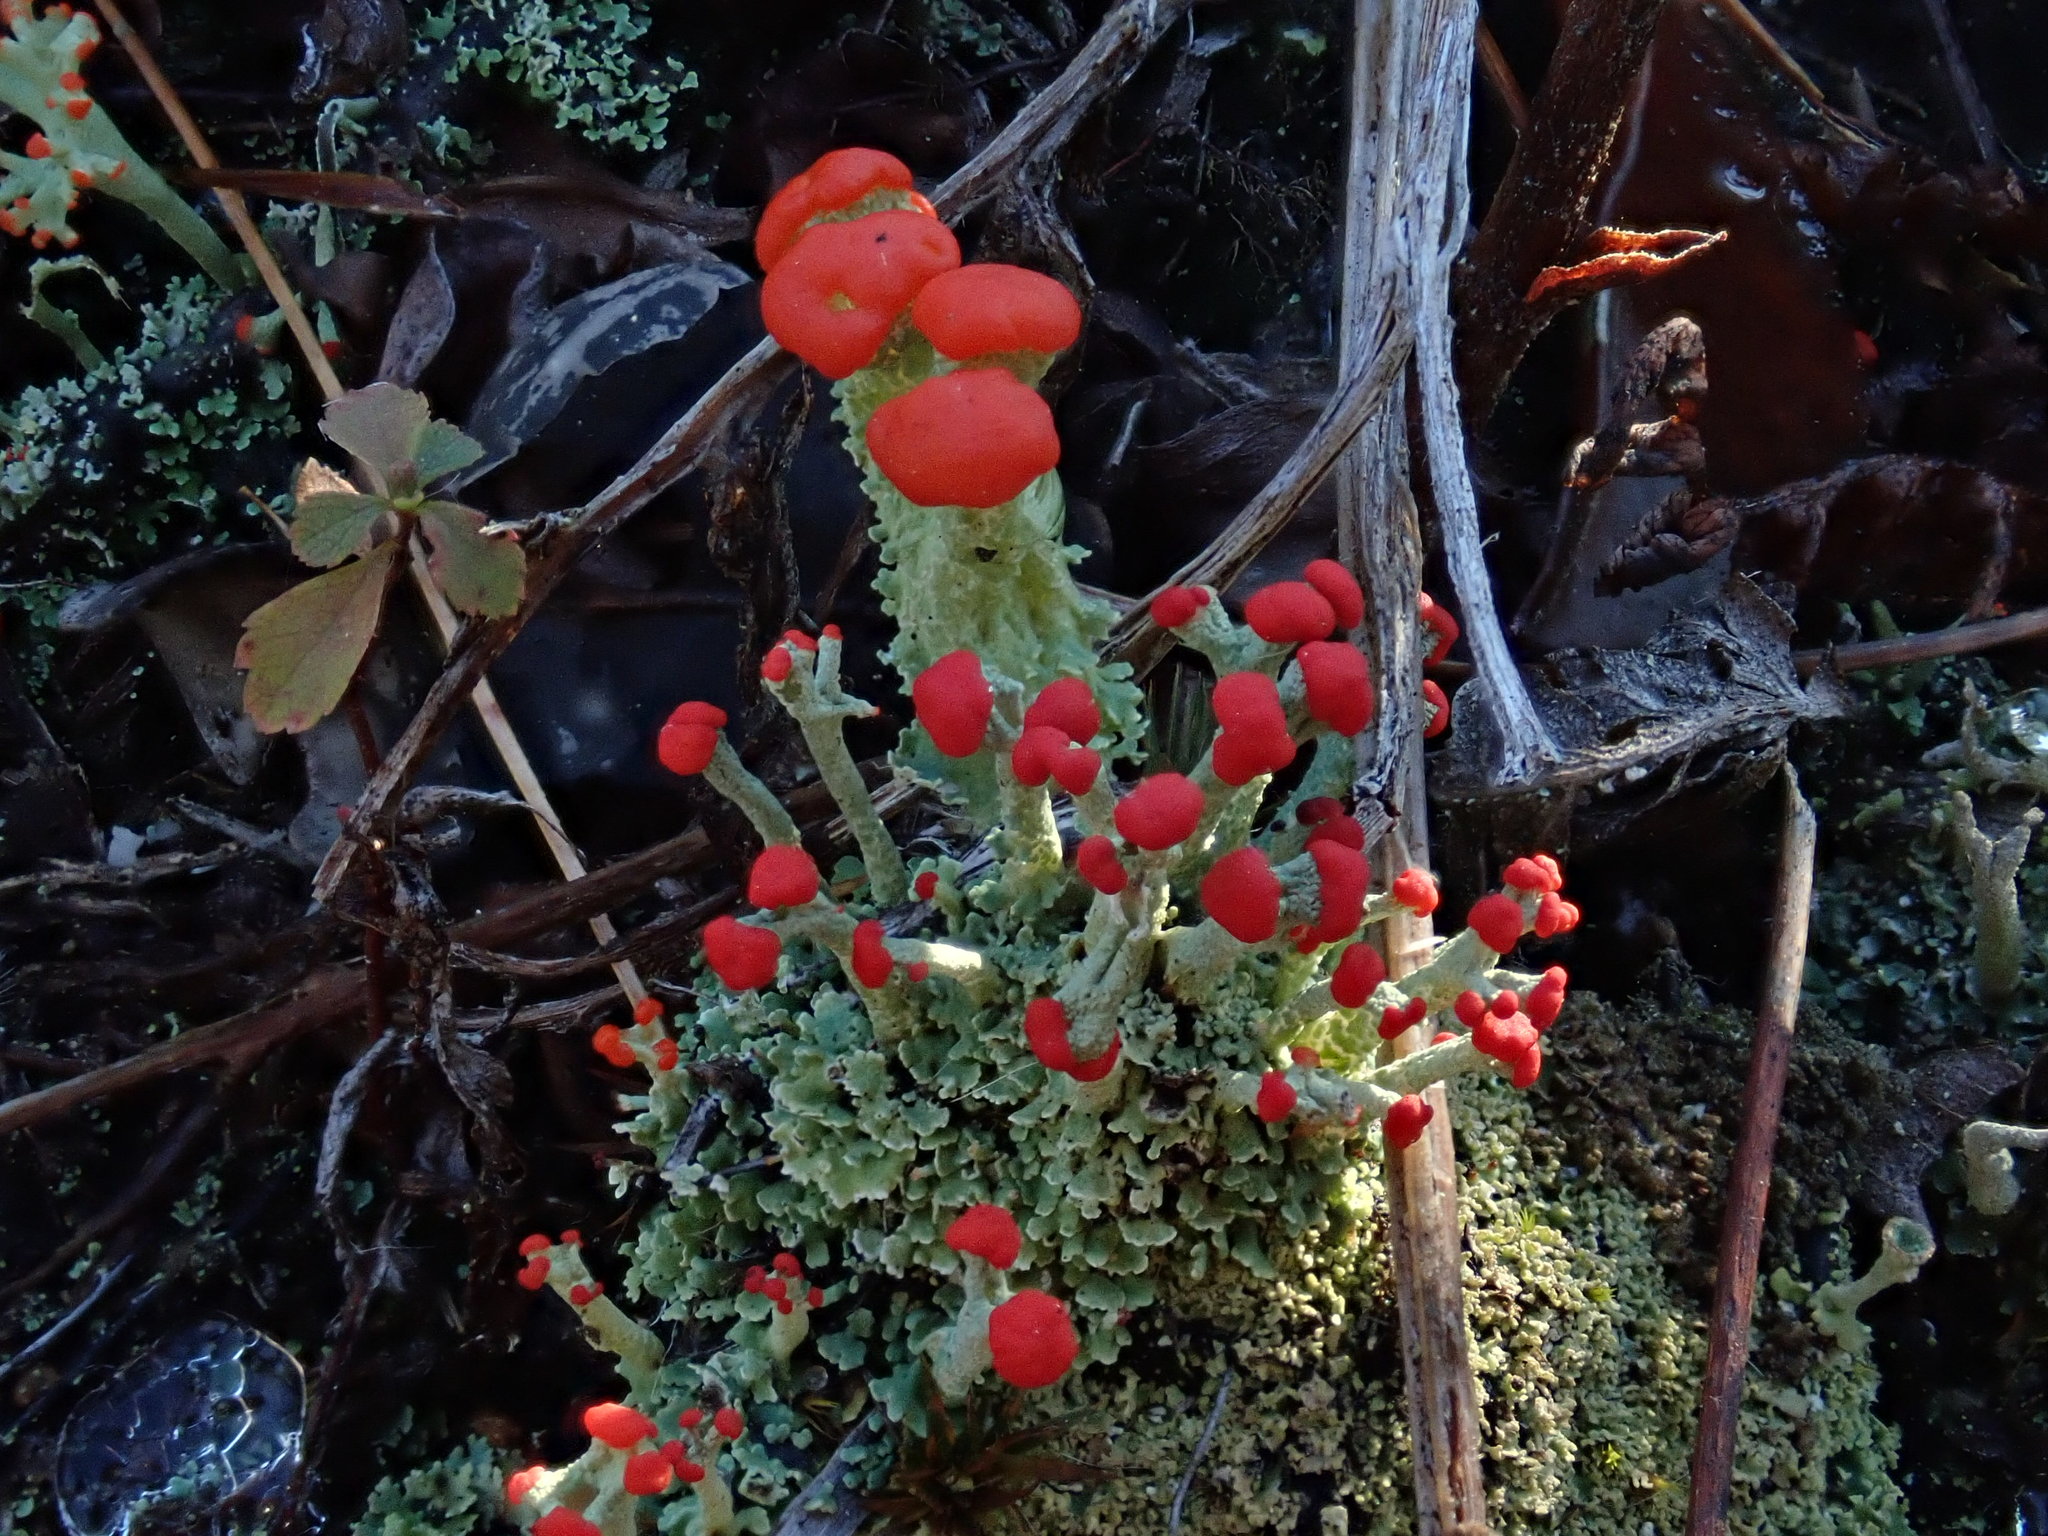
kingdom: Fungi
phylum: Ascomycota
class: Lecanoromycetes
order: Lecanorales
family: Cladoniaceae
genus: Cladonia
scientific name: Cladonia cristatella
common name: British soldier lichen
